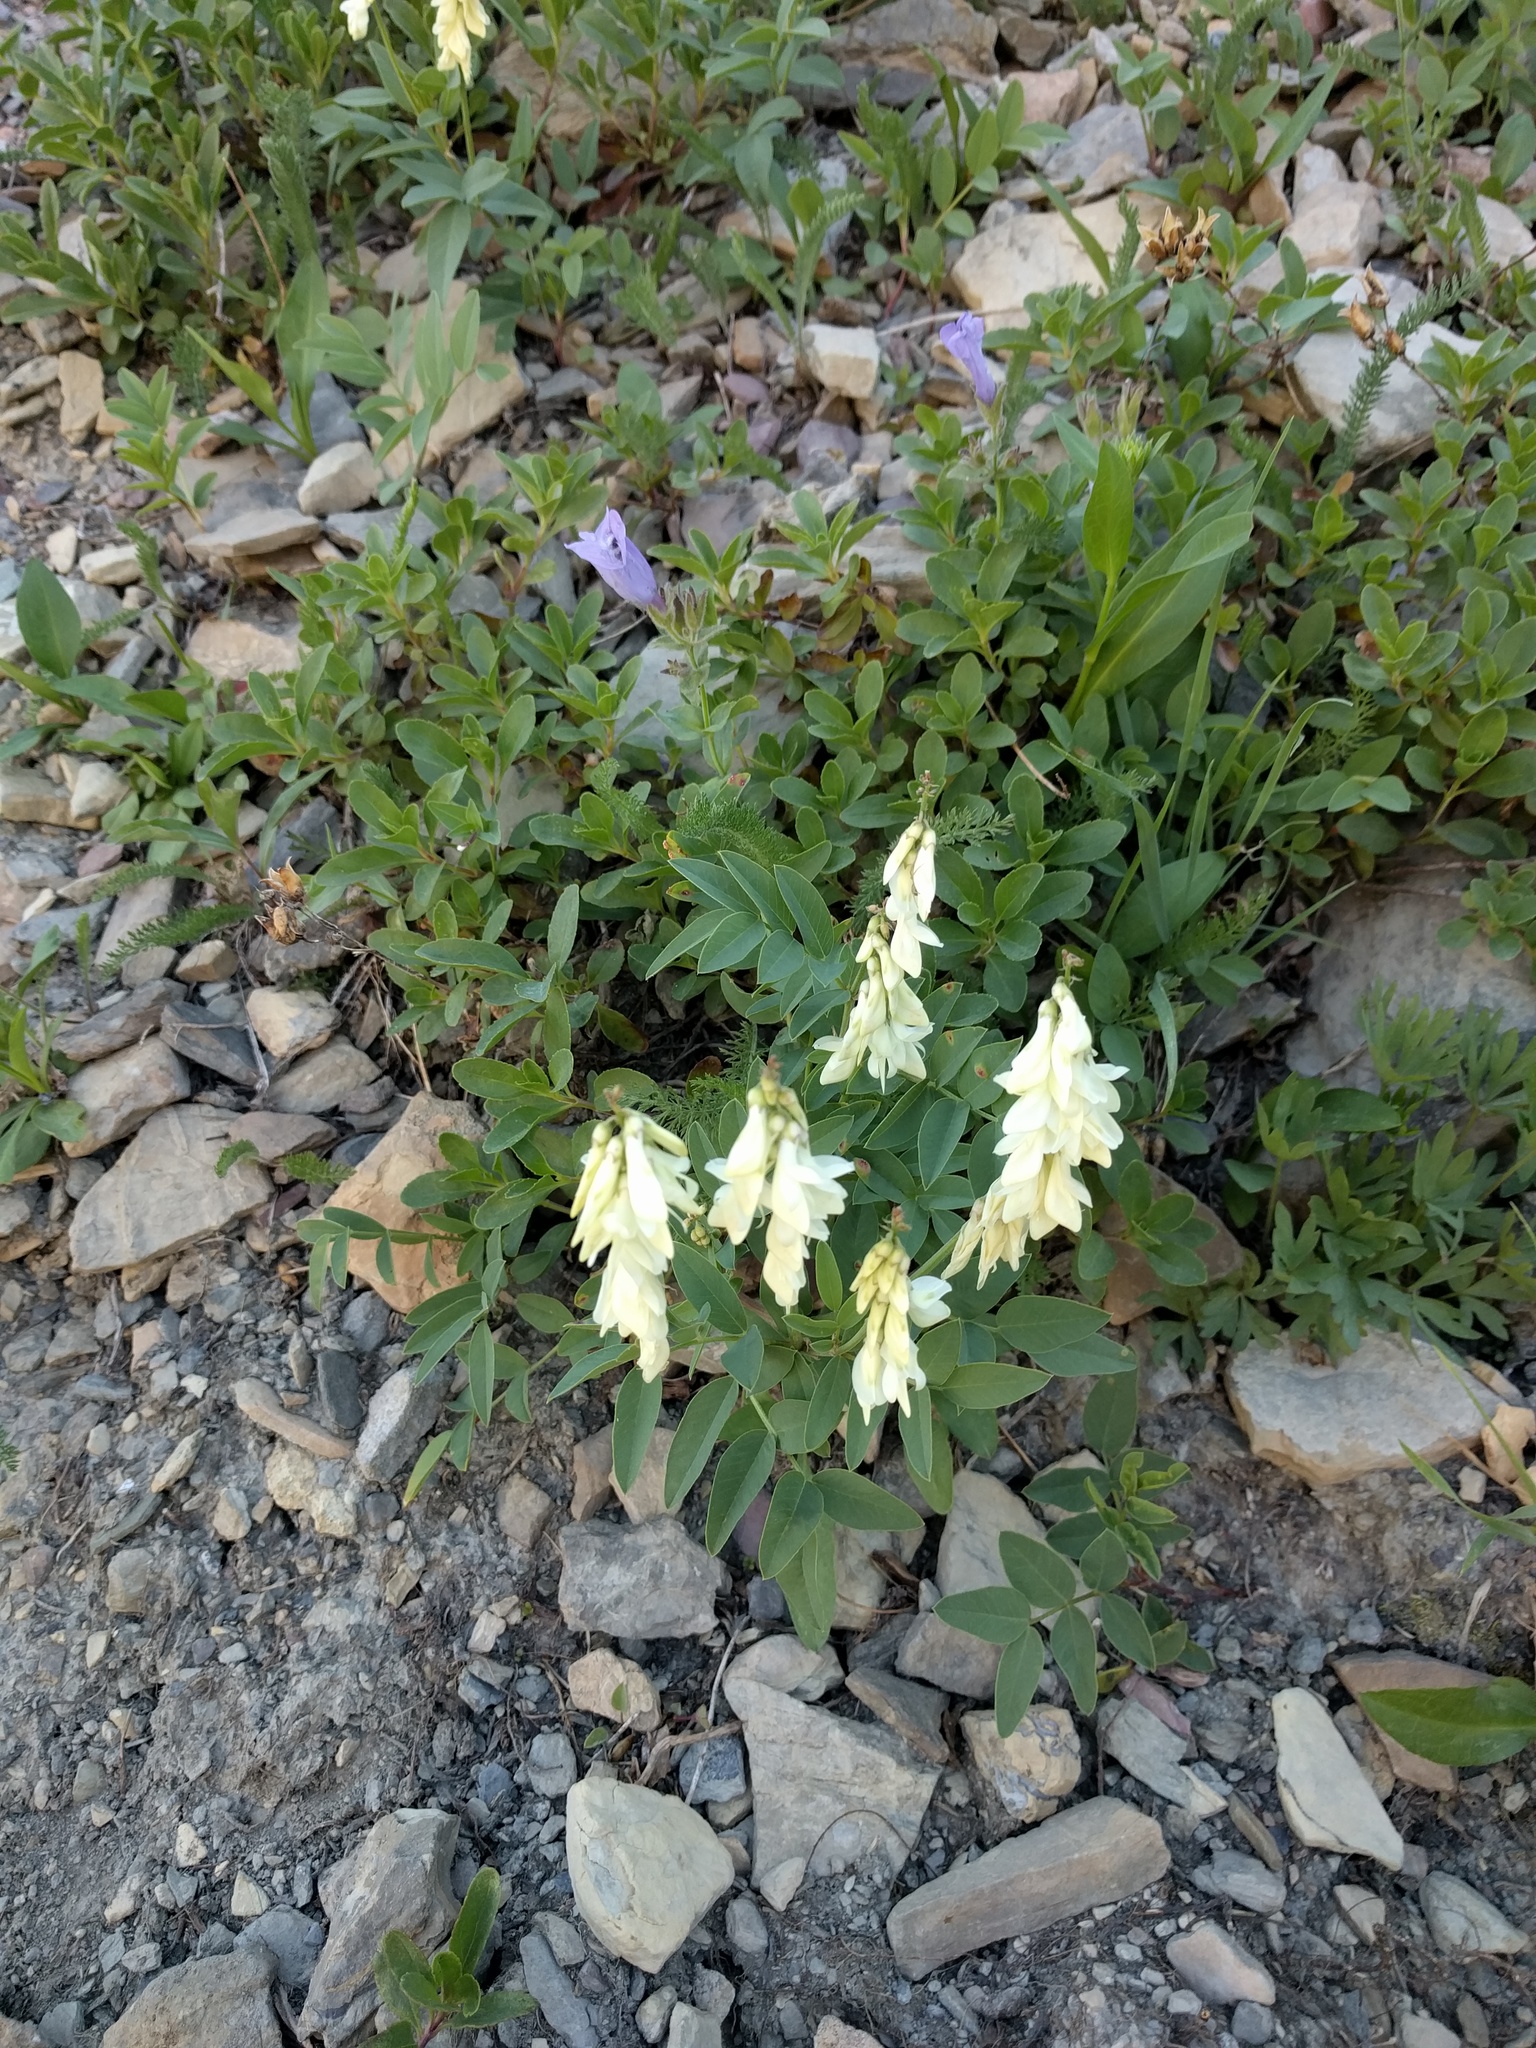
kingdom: Plantae
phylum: Tracheophyta
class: Magnoliopsida
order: Fabales
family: Fabaceae
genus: Hedysarum
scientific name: Hedysarum sulphurescens
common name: Sulphur hedysarum
